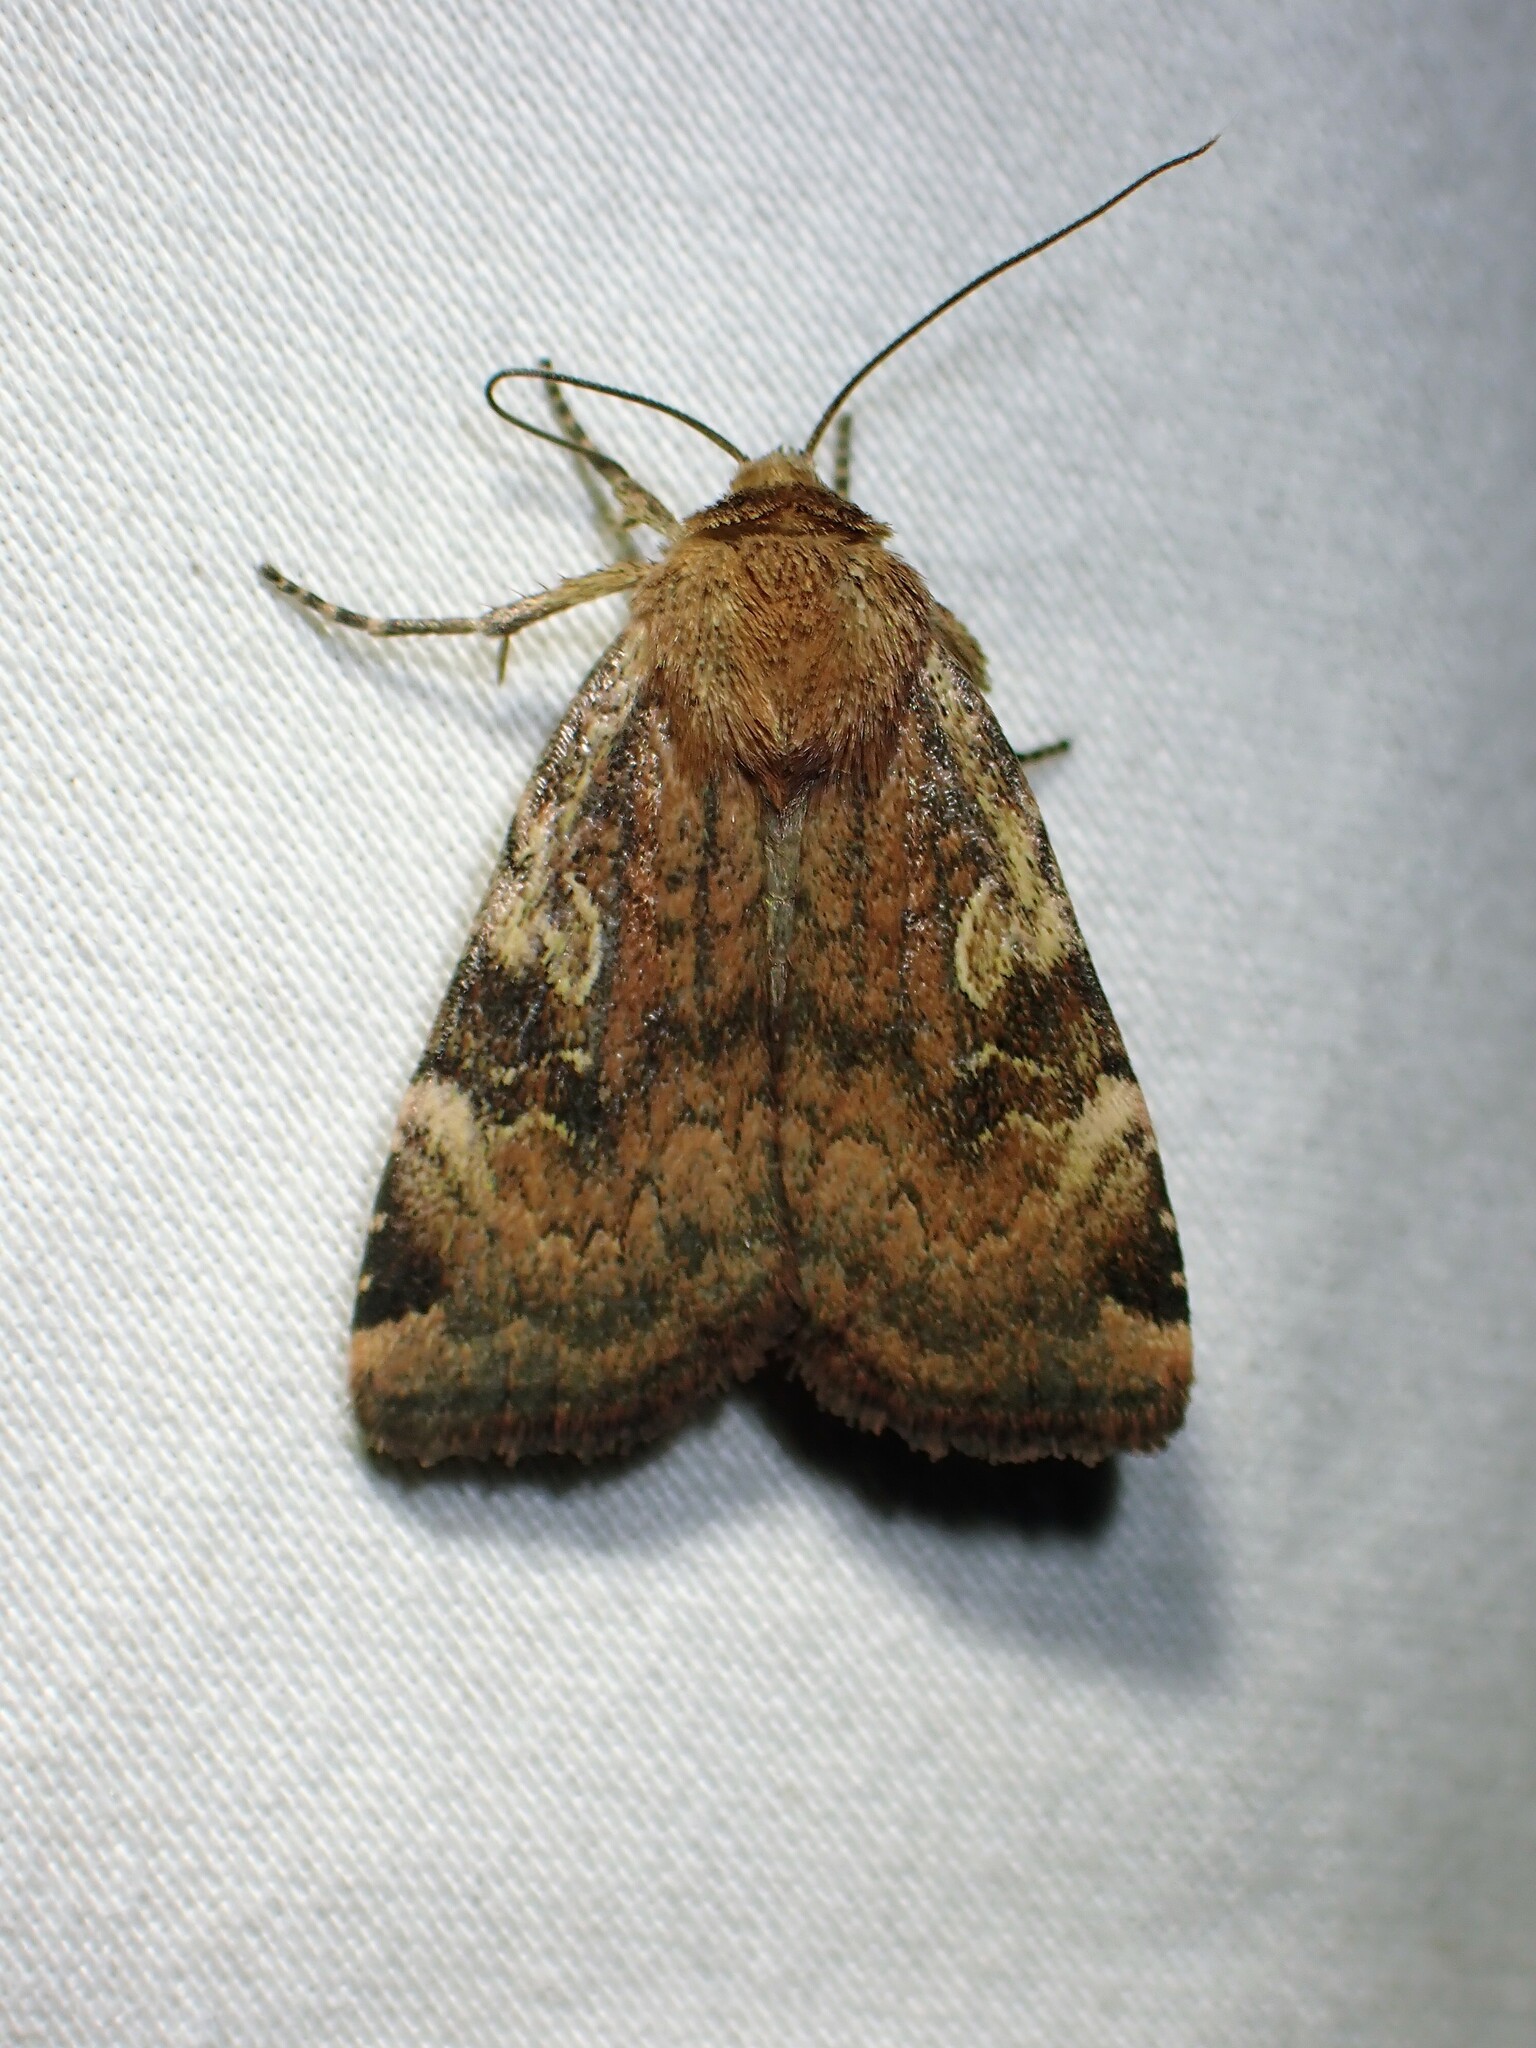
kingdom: Animalia
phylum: Arthropoda
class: Insecta
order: Lepidoptera
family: Noctuidae
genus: Cryptocala
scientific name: Cryptocala acadiensis
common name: Catocaline dart
